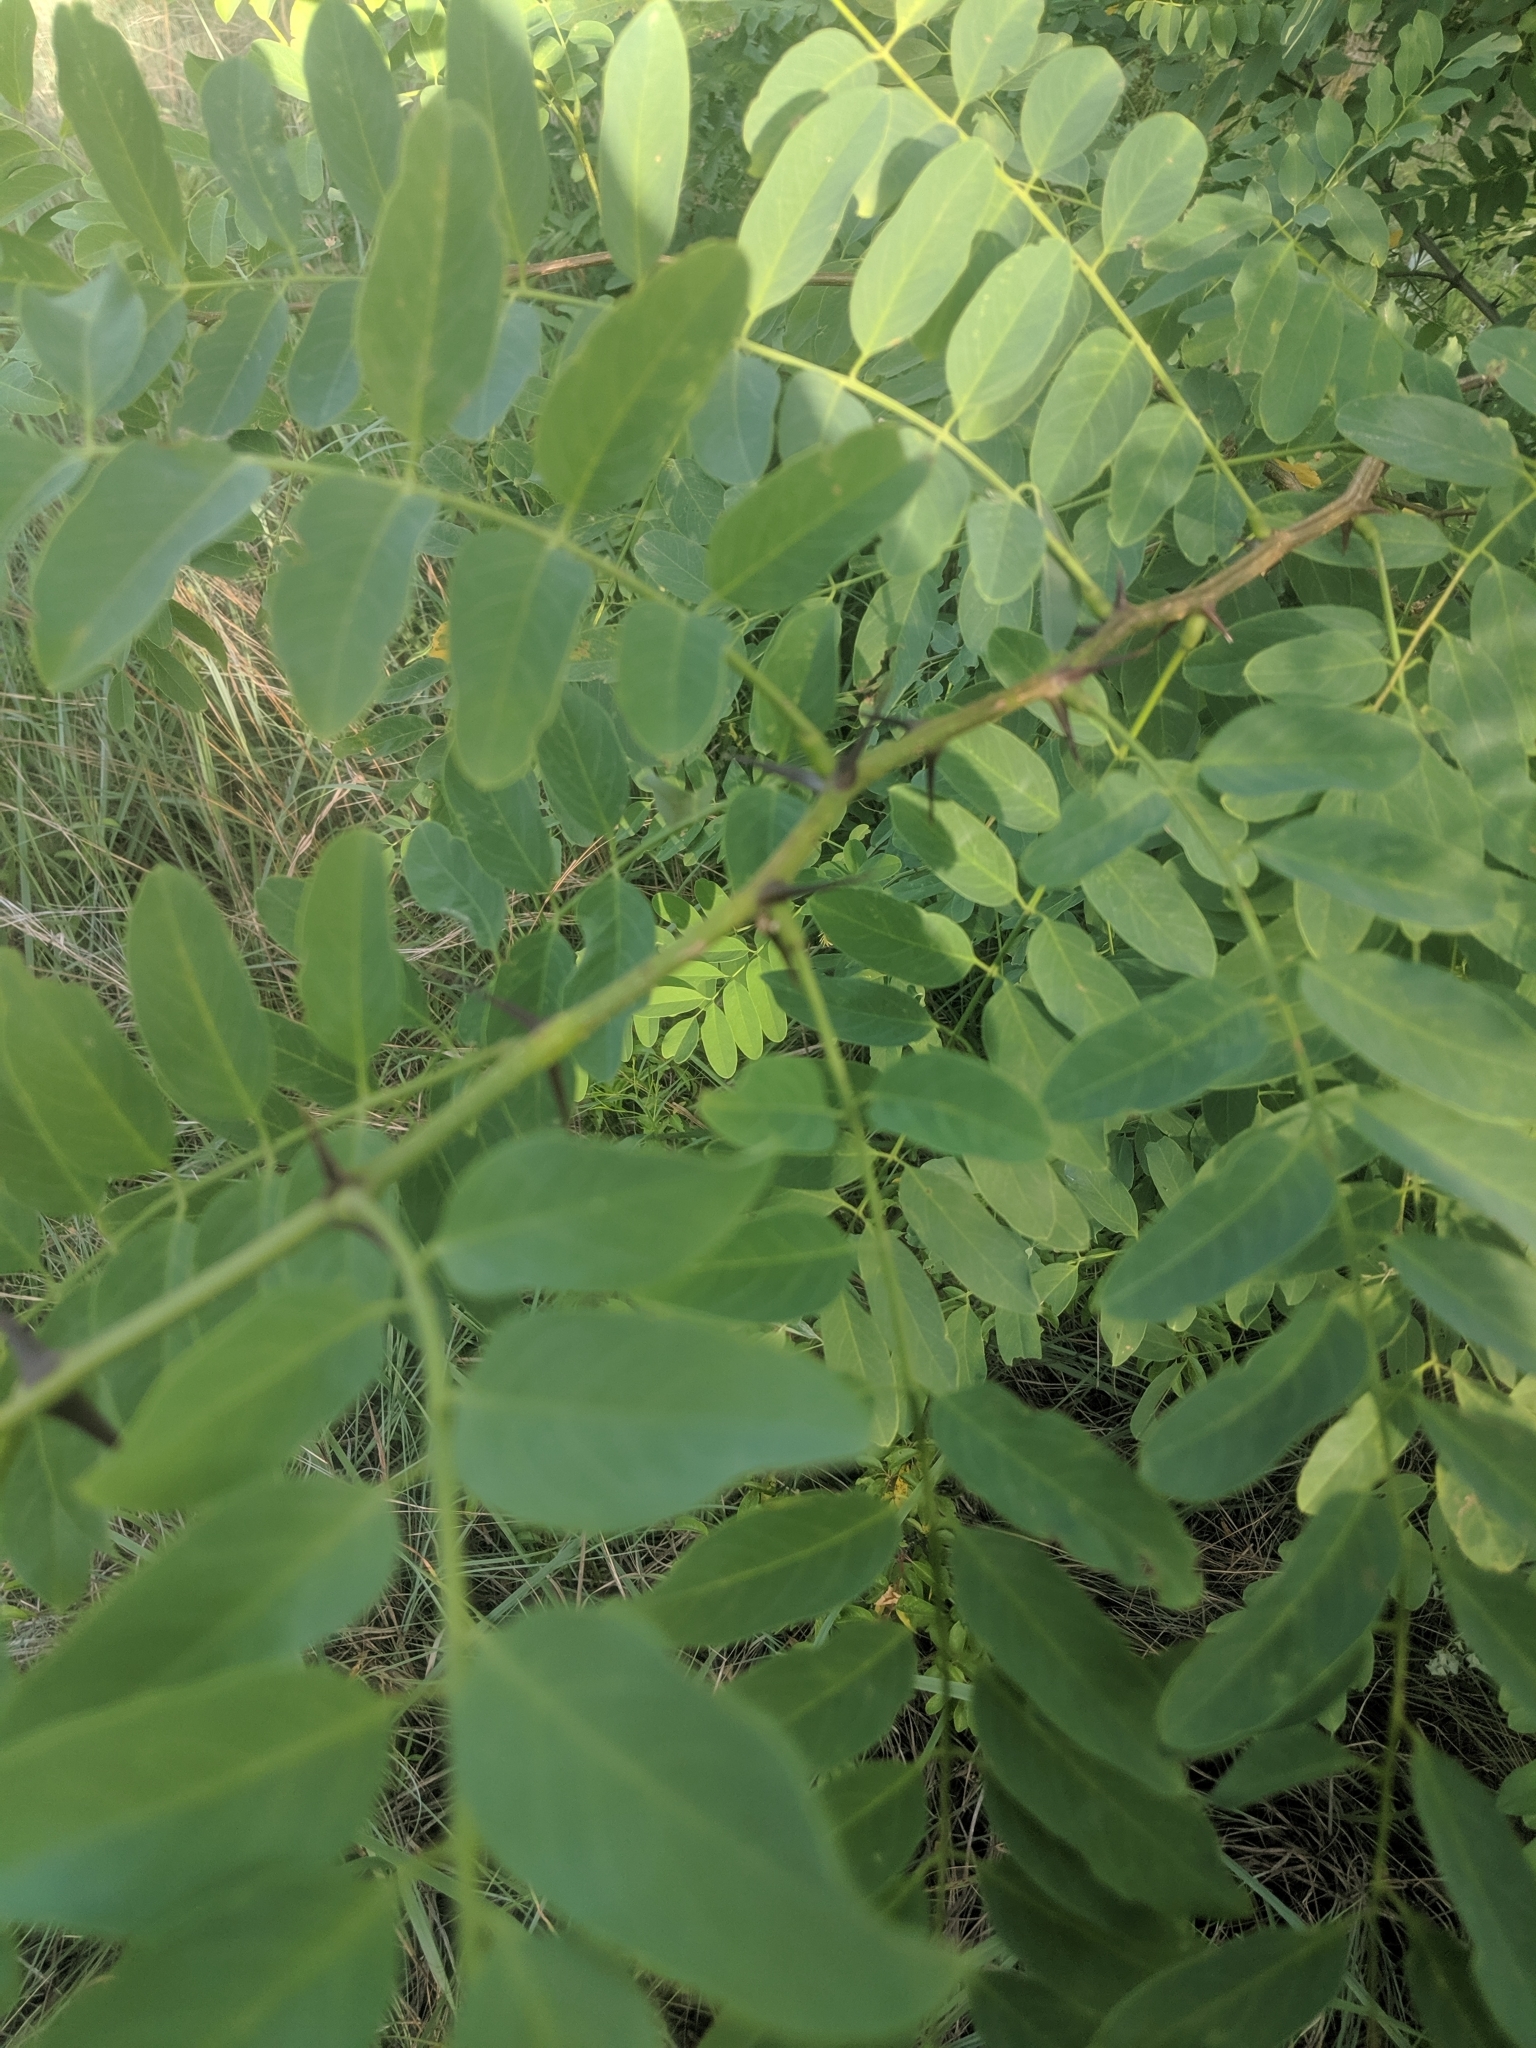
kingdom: Plantae
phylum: Tracheophyta
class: Magnoliopsida
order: Fabales
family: Fabaceae
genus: Robinia
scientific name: Robinia pseudoacacia
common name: Black locust
